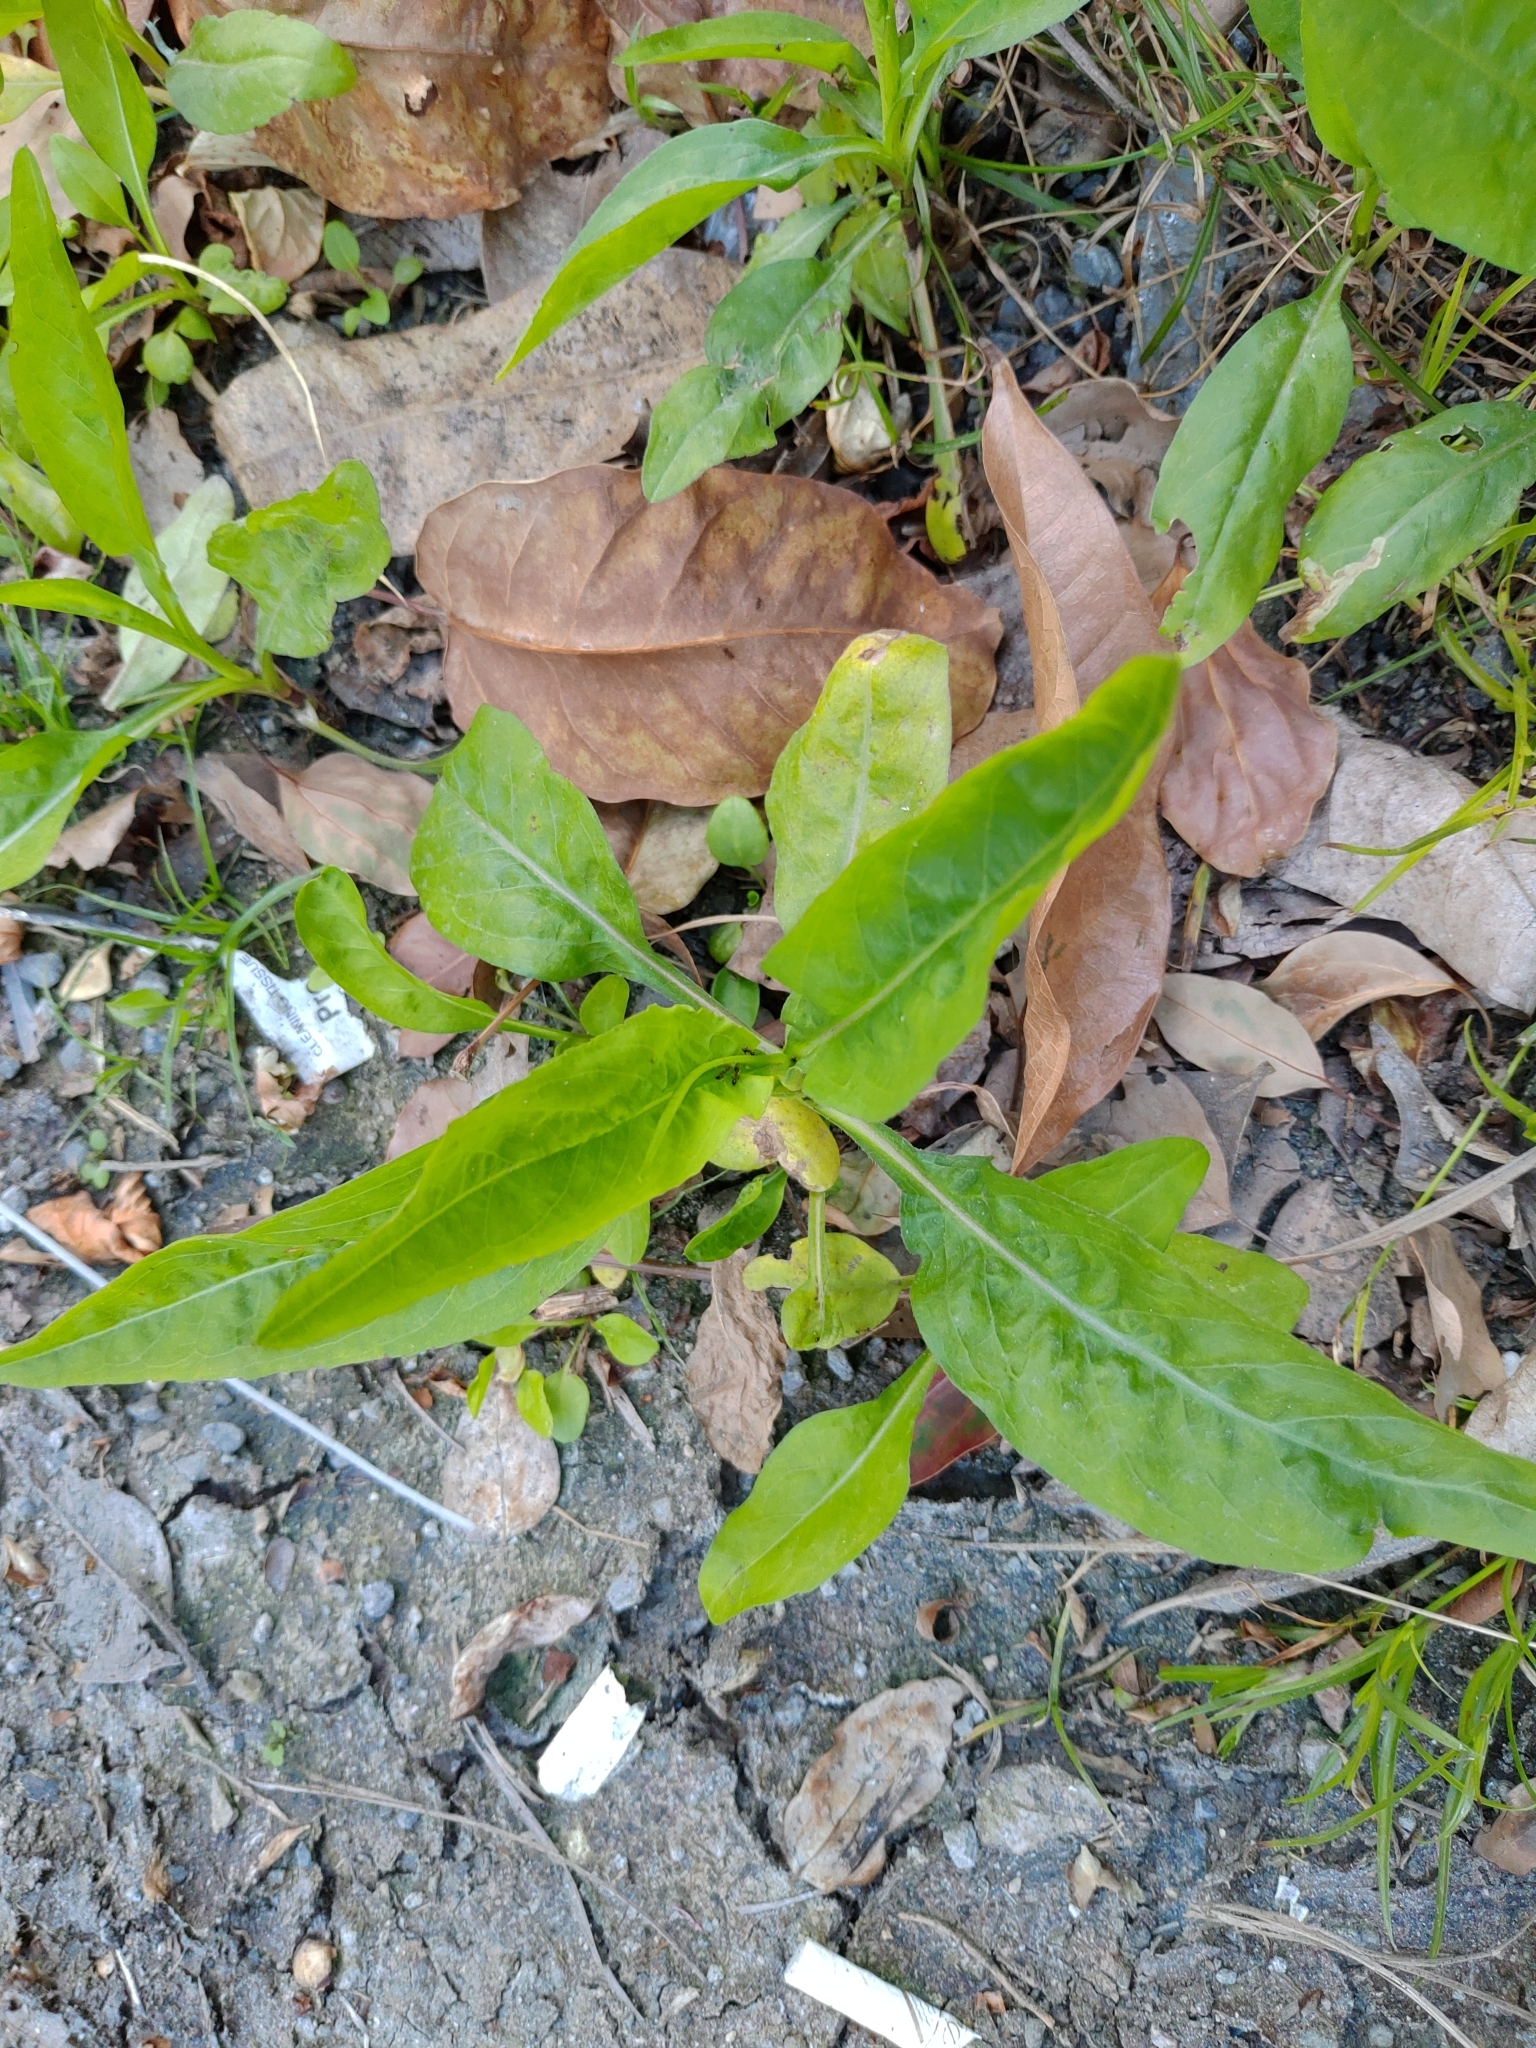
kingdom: Plantae
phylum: Tracheophyta
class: Magnoliopsida
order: Asterales
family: Asteraceae
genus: Symphyotrichum
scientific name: Symphyotrichum subulatum
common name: Annual saltmarsh aster
